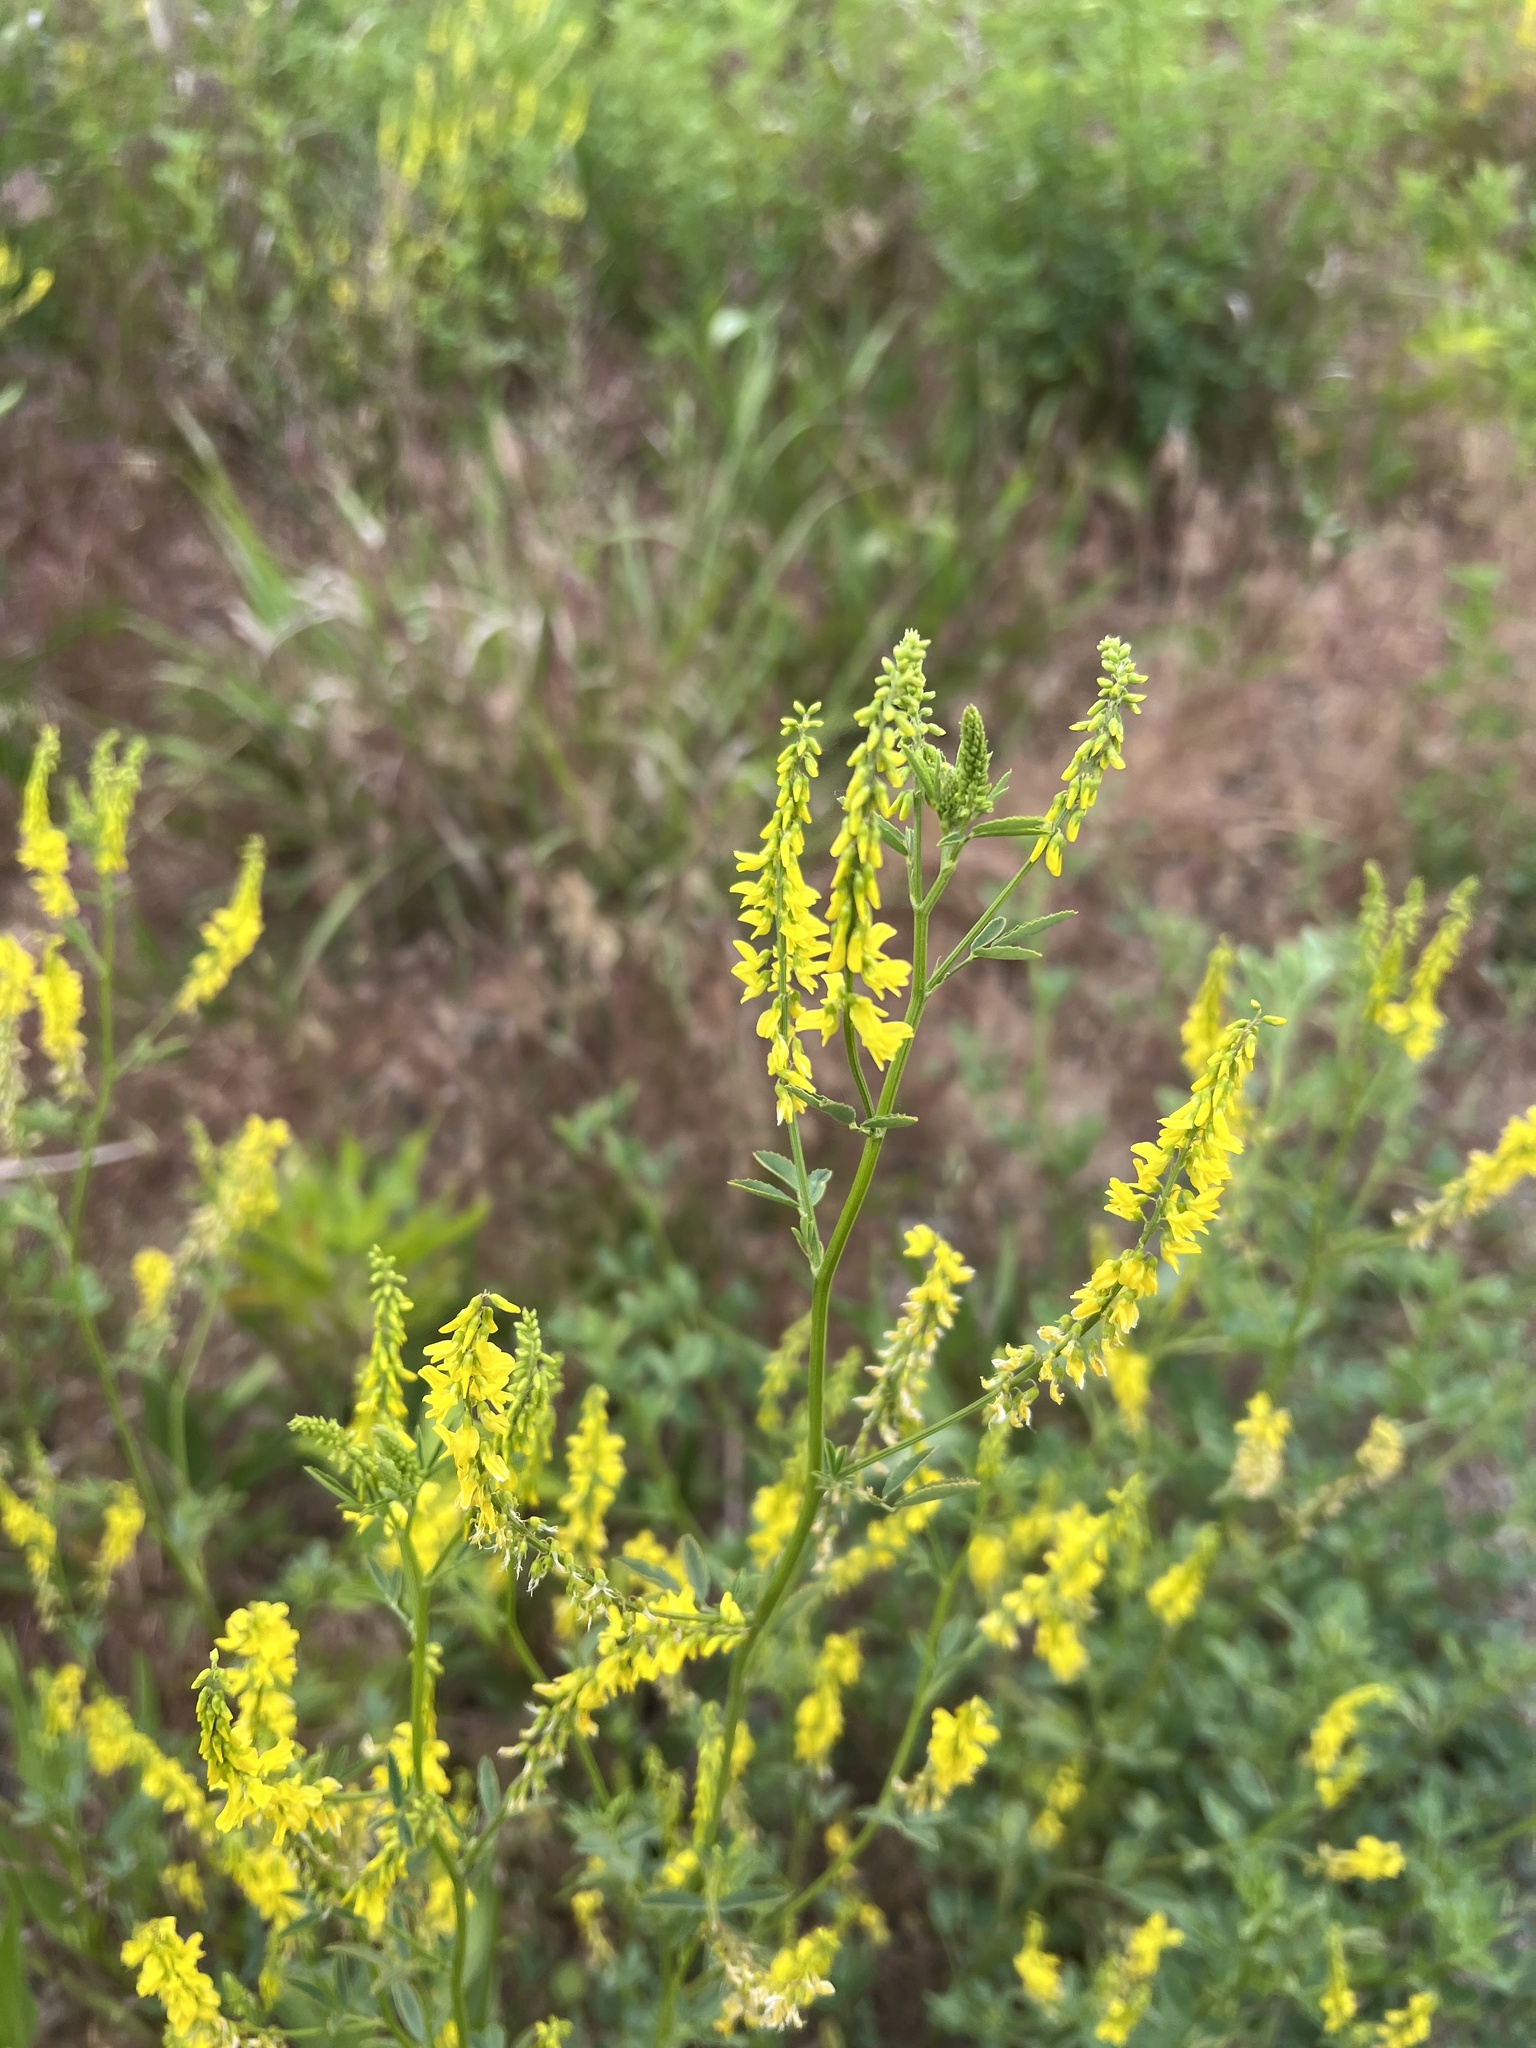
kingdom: Plantae
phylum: Tracheophyta
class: Magnoliopsida
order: Fabales
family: Fabaceae
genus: Melilotus
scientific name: Melilotus officinalis
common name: Sweetclover
